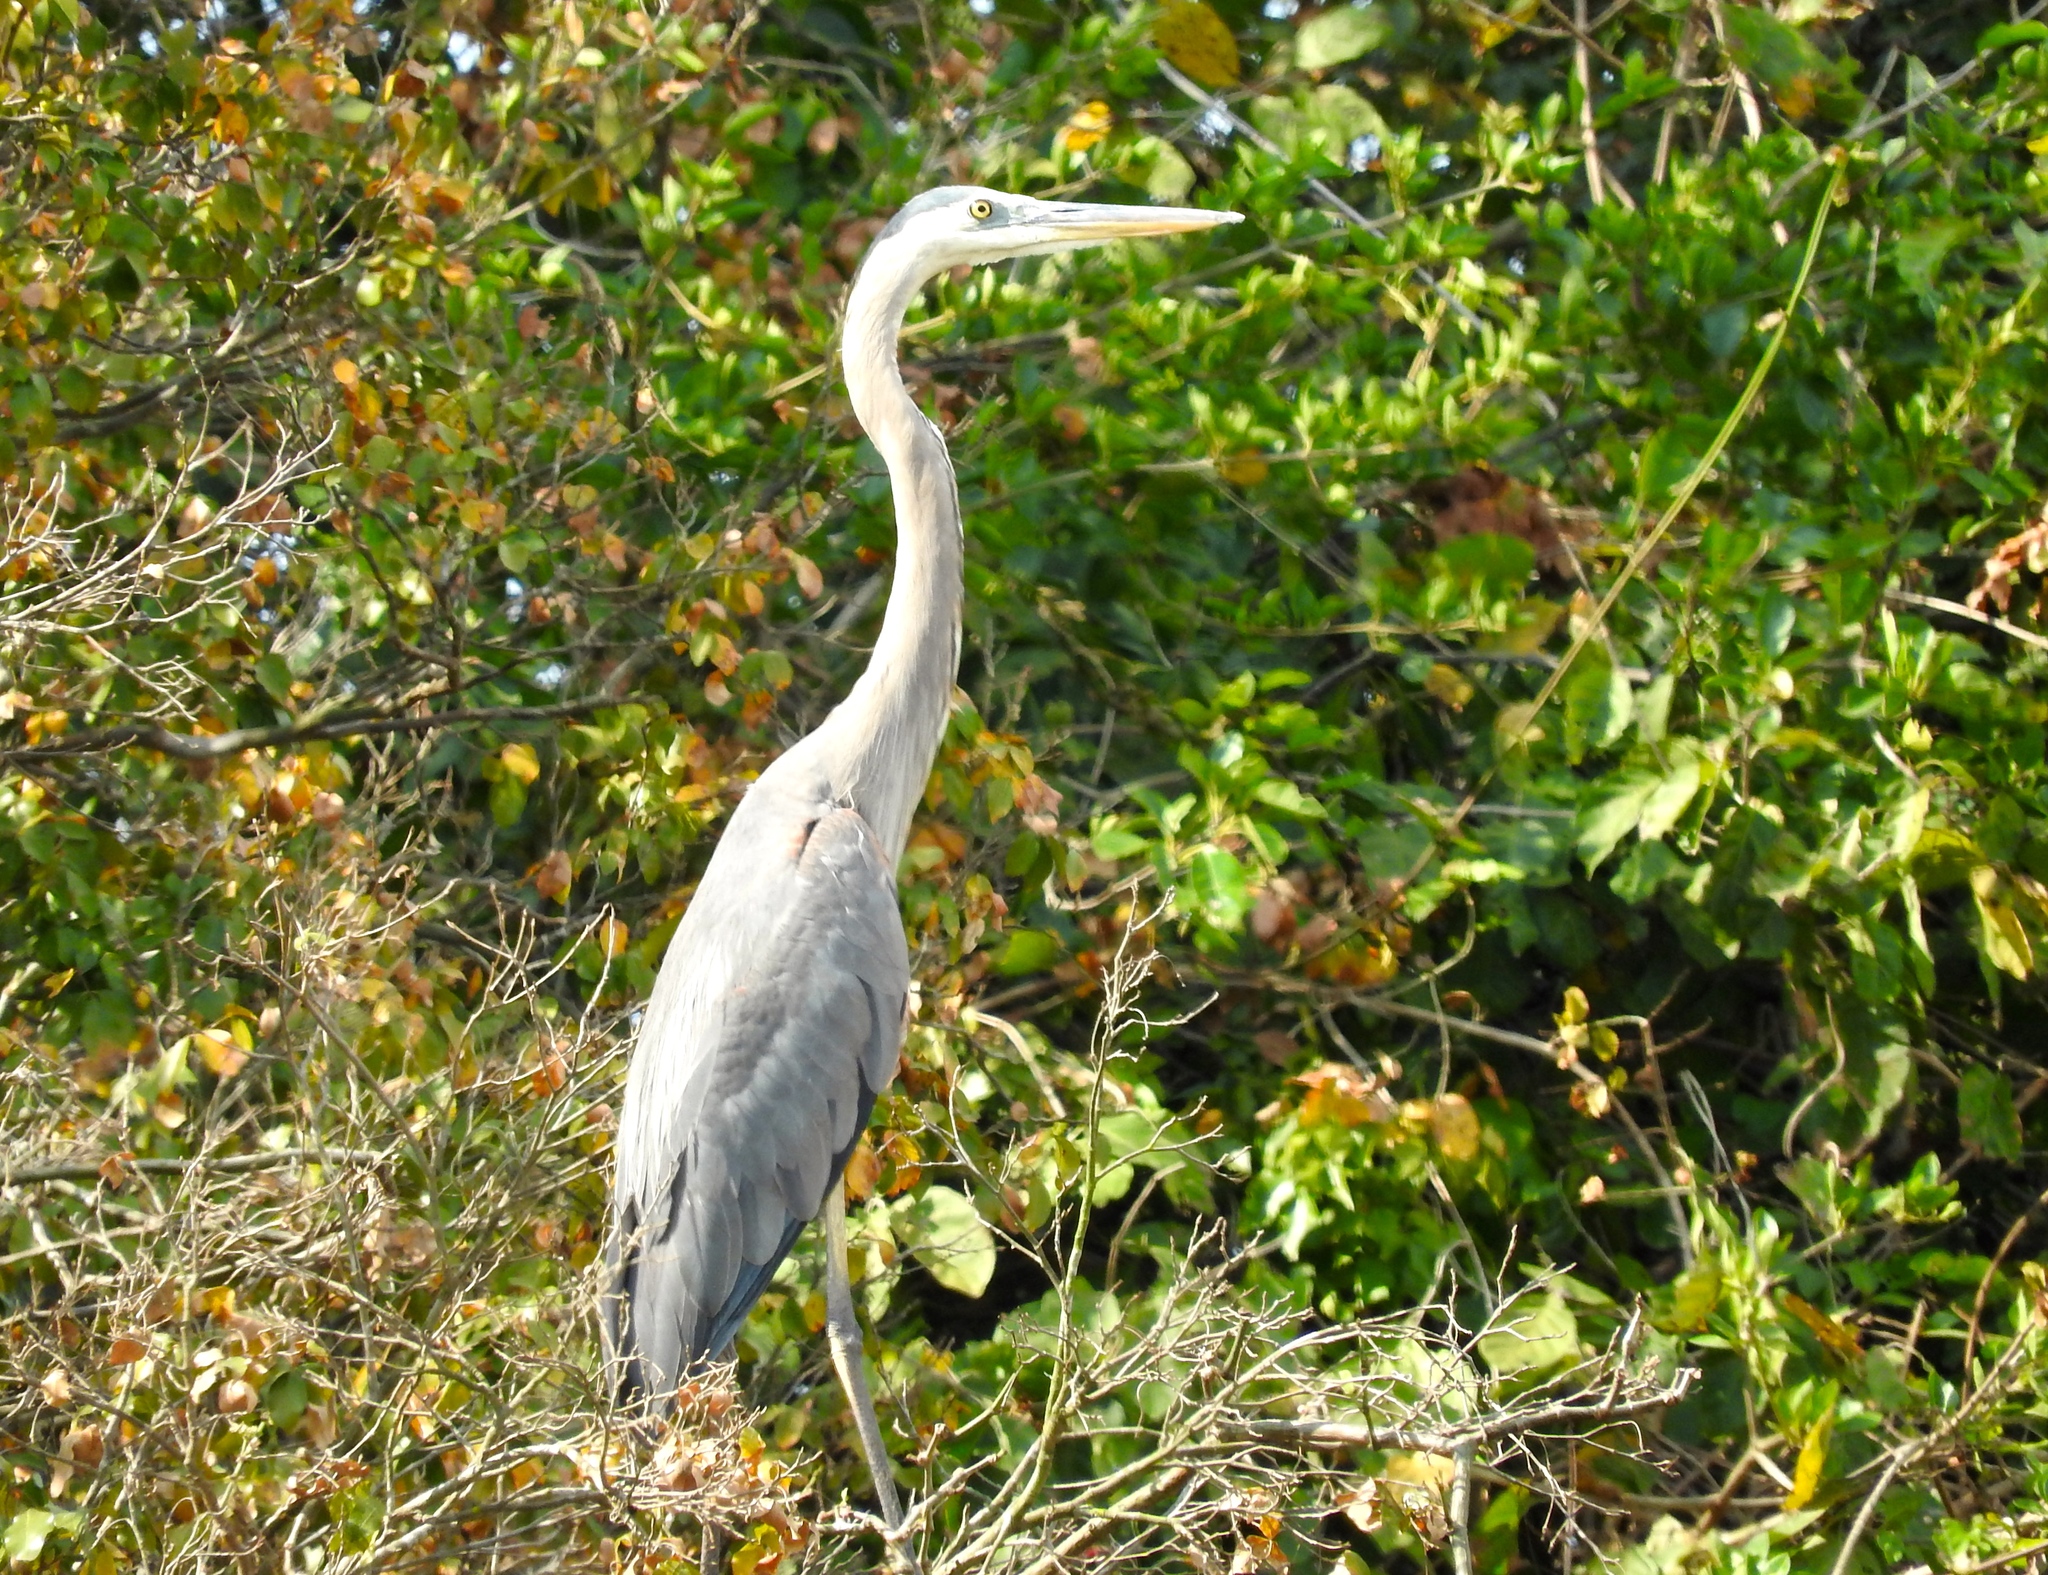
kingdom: Animalia
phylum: Chordata
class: Aves
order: Pelecaniformes
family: Ardeidae
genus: Ardea
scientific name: Ardea herodias
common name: Great blue heron
